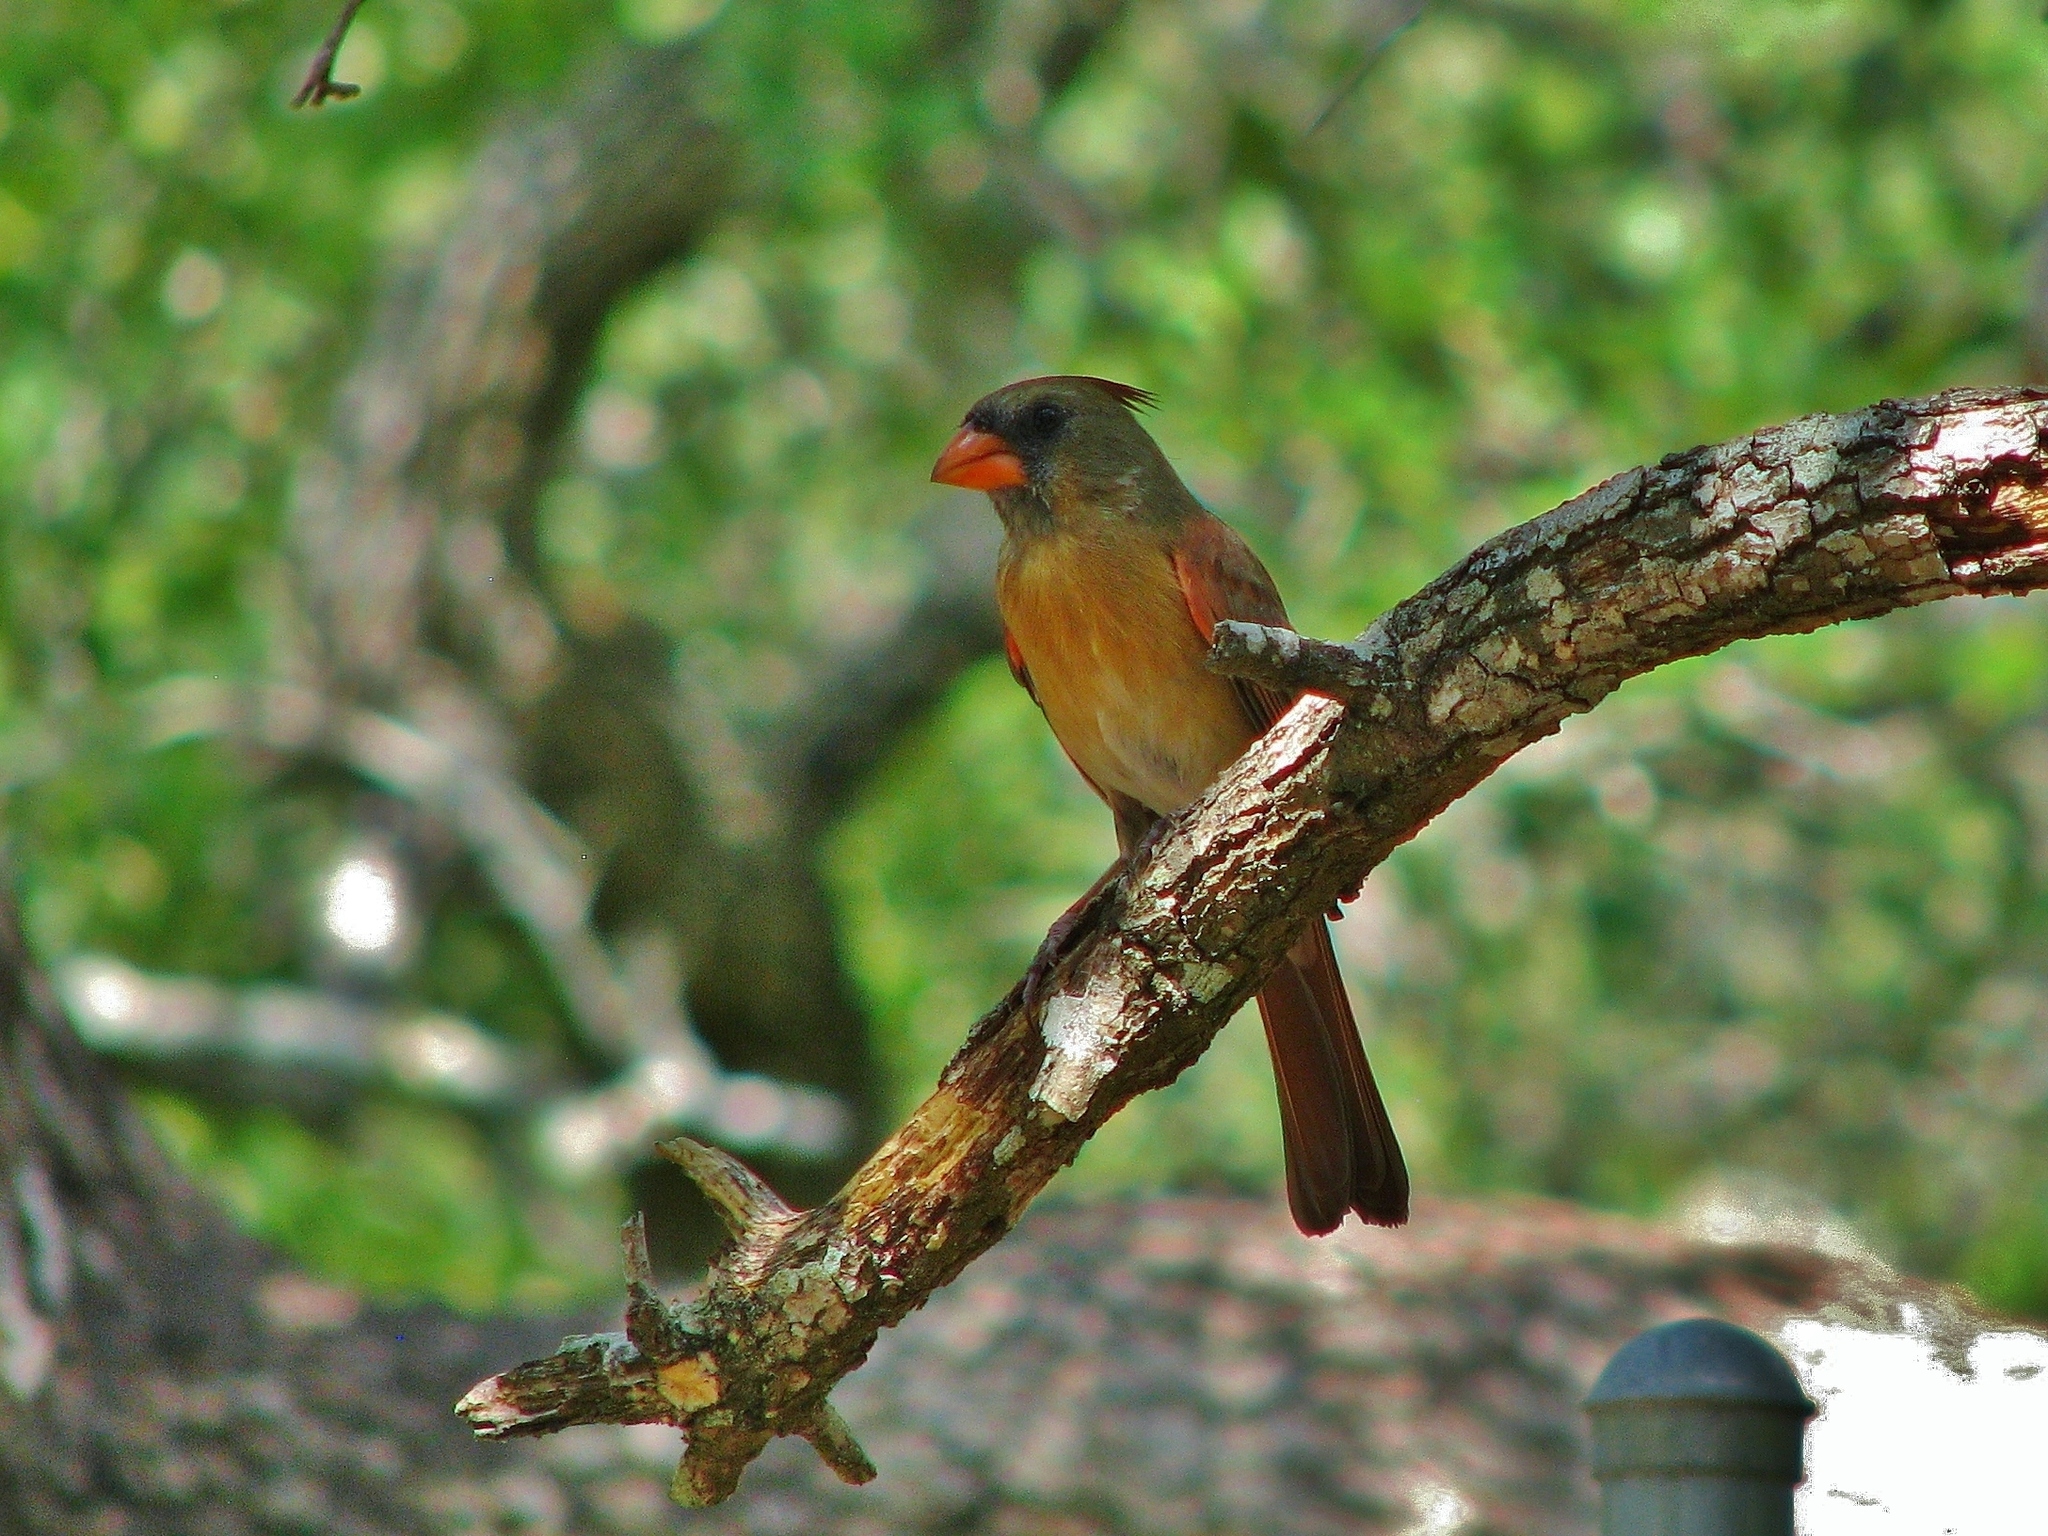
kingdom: Animalia
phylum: Chordata
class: Aves
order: Passeriformes
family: Cardinalidae
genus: Cardinalis
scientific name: Cardinalis cardinalis
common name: Northern cardinal
